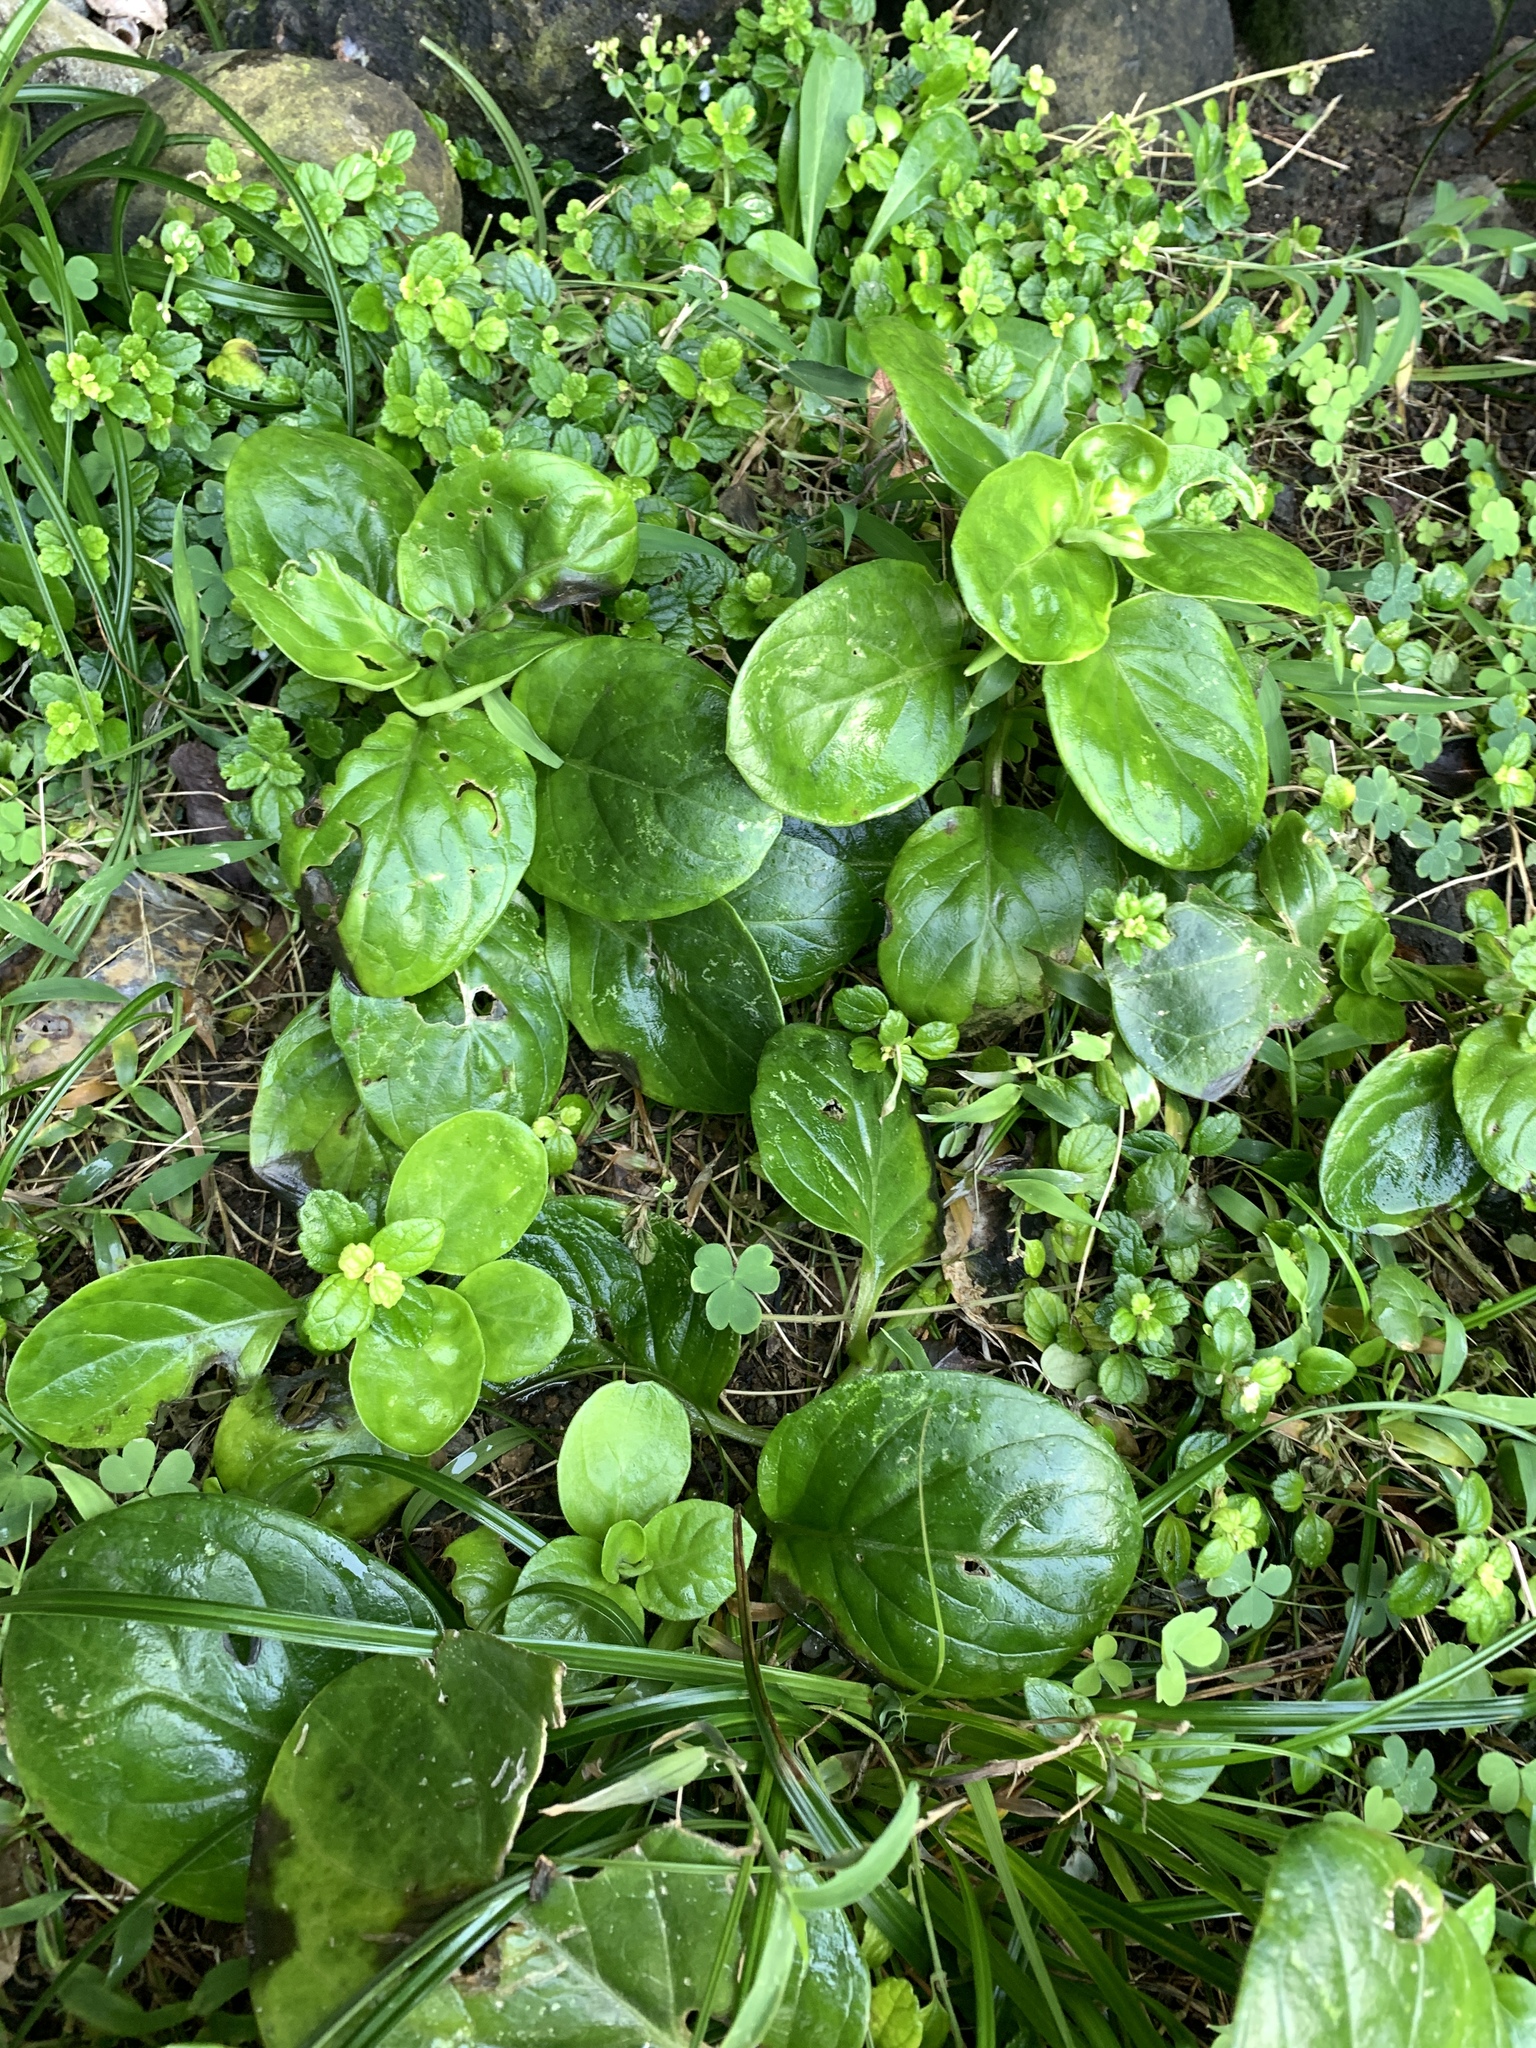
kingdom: Plantae
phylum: Tracheophyta
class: Magnoliopsida
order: Asterales
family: Asteraceae
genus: Gynura
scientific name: Gynura elliptica
